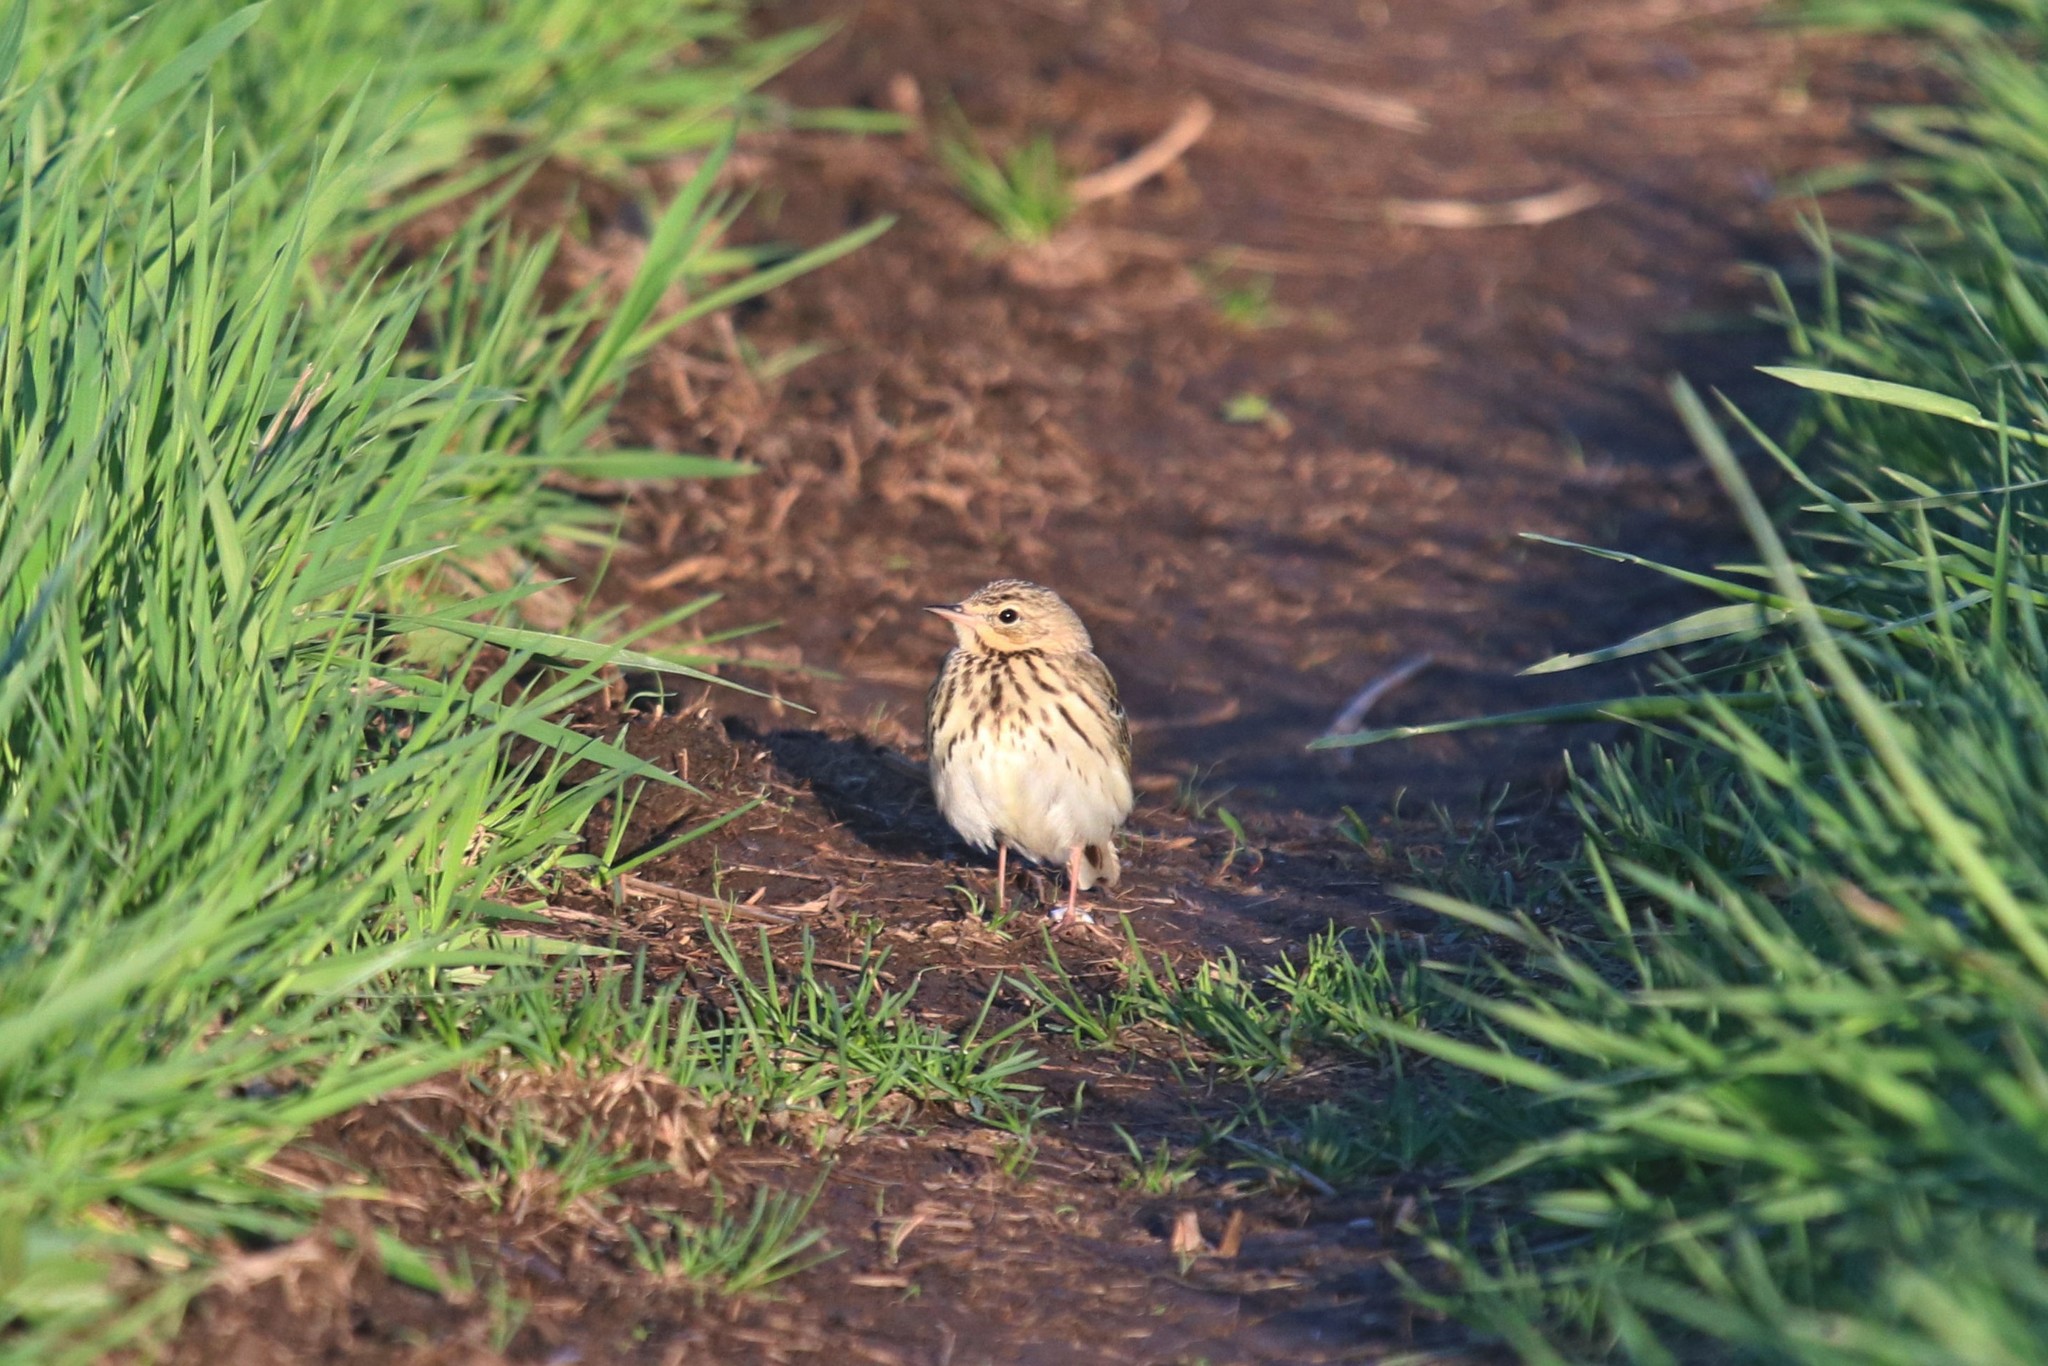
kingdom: Animalia
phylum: Chordata
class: Aves
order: Passeriformes
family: Motacillidae
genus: Anthus
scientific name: Anthus trivialis
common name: Tree pipit
